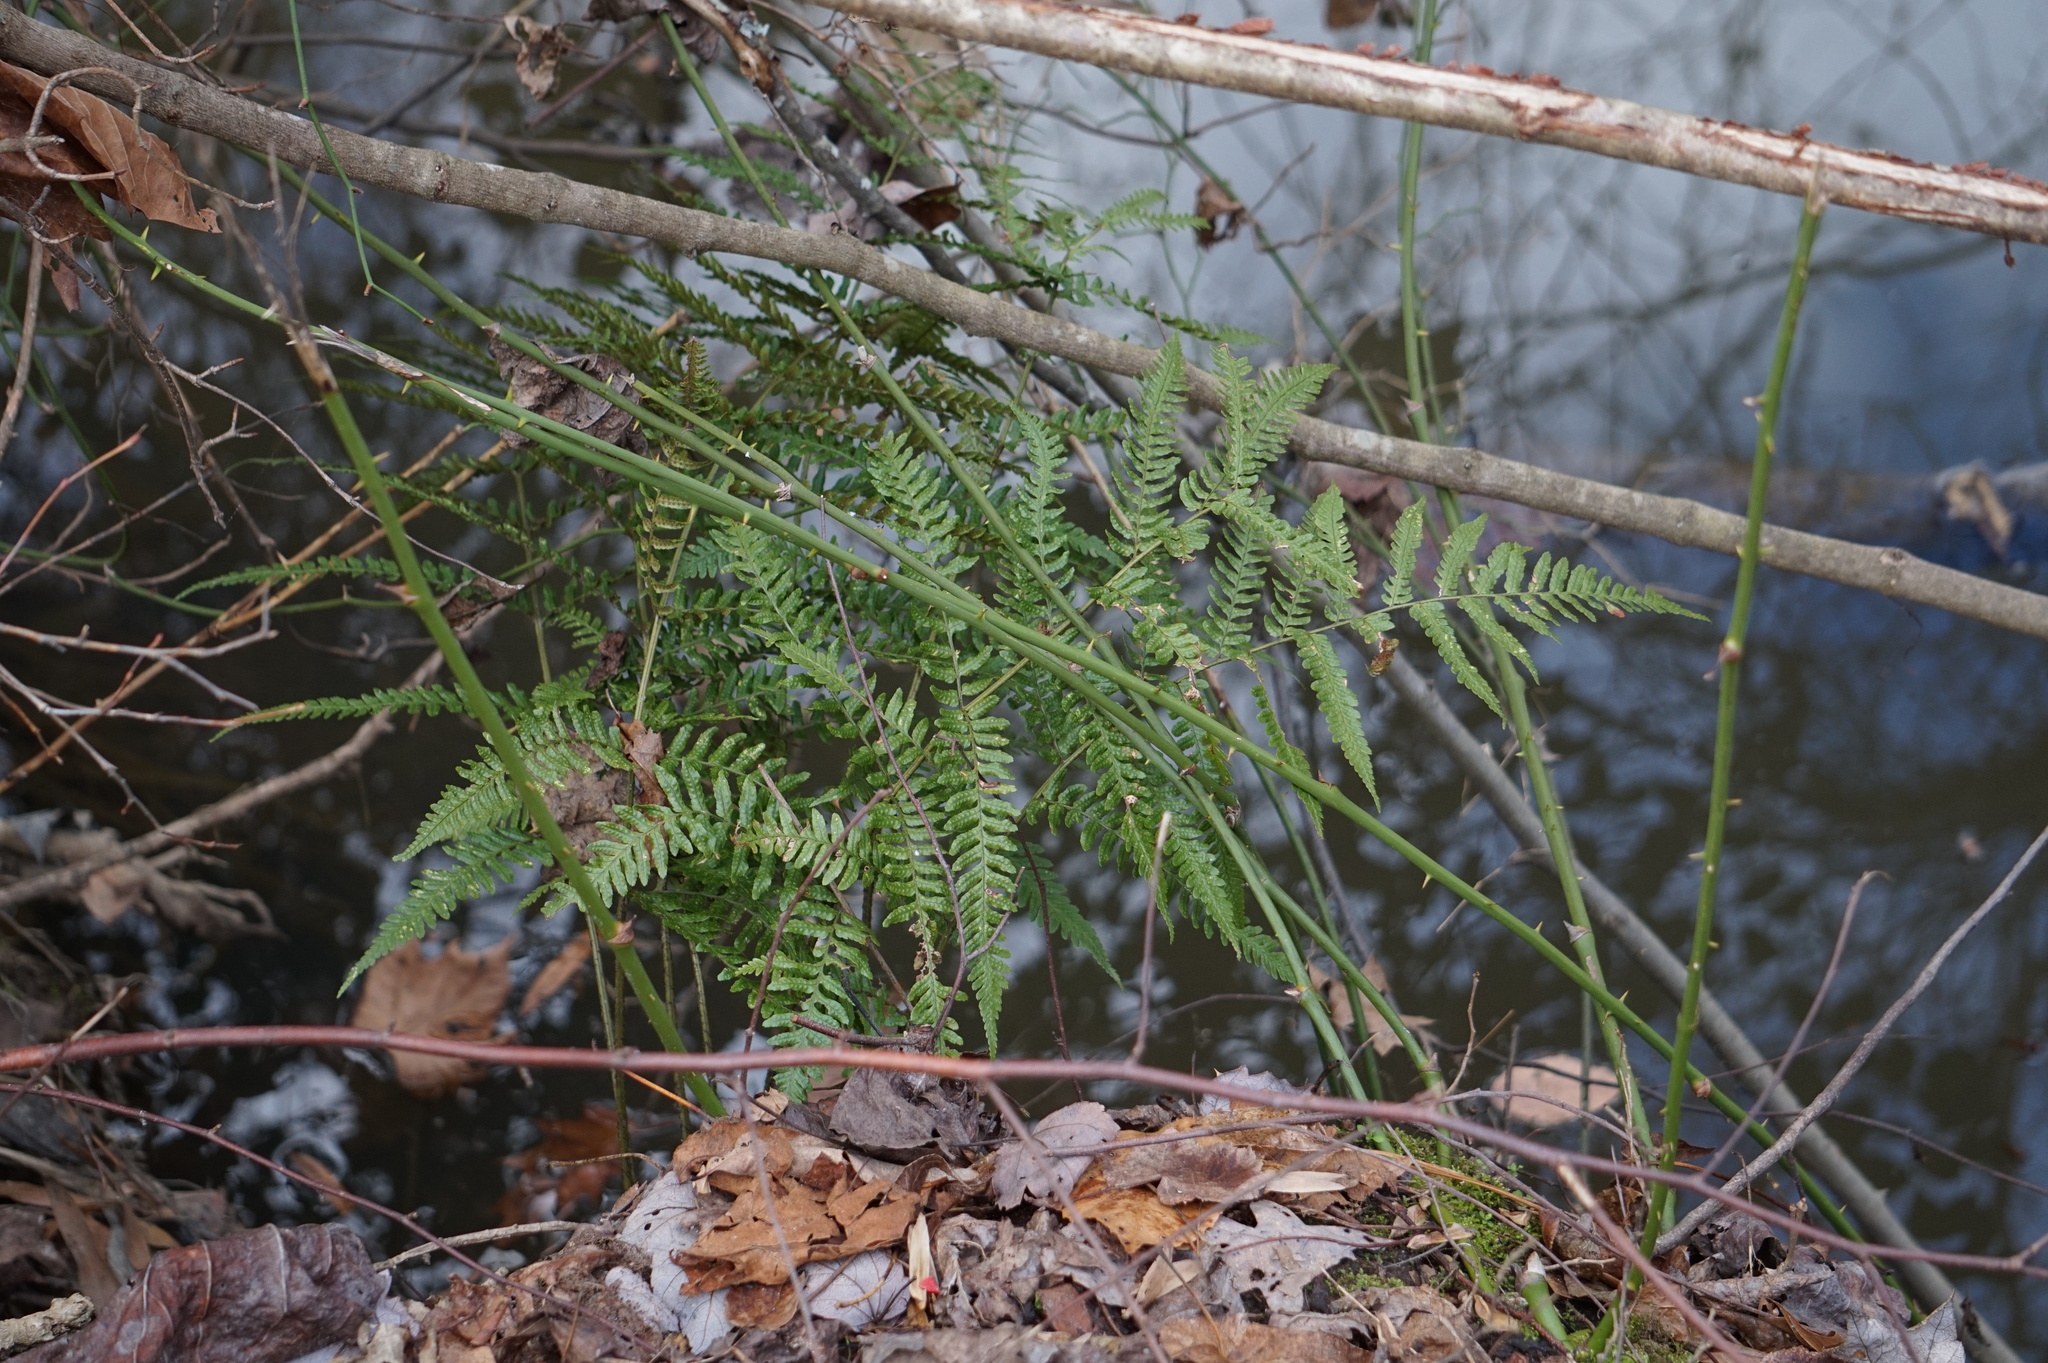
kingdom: Plantae
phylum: Tracheophyta
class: Polypodiopsida
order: Polypodiales
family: Dryopteridaceae
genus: Dryopteris
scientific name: Dryopteris erythrosora
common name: Autumn fern
